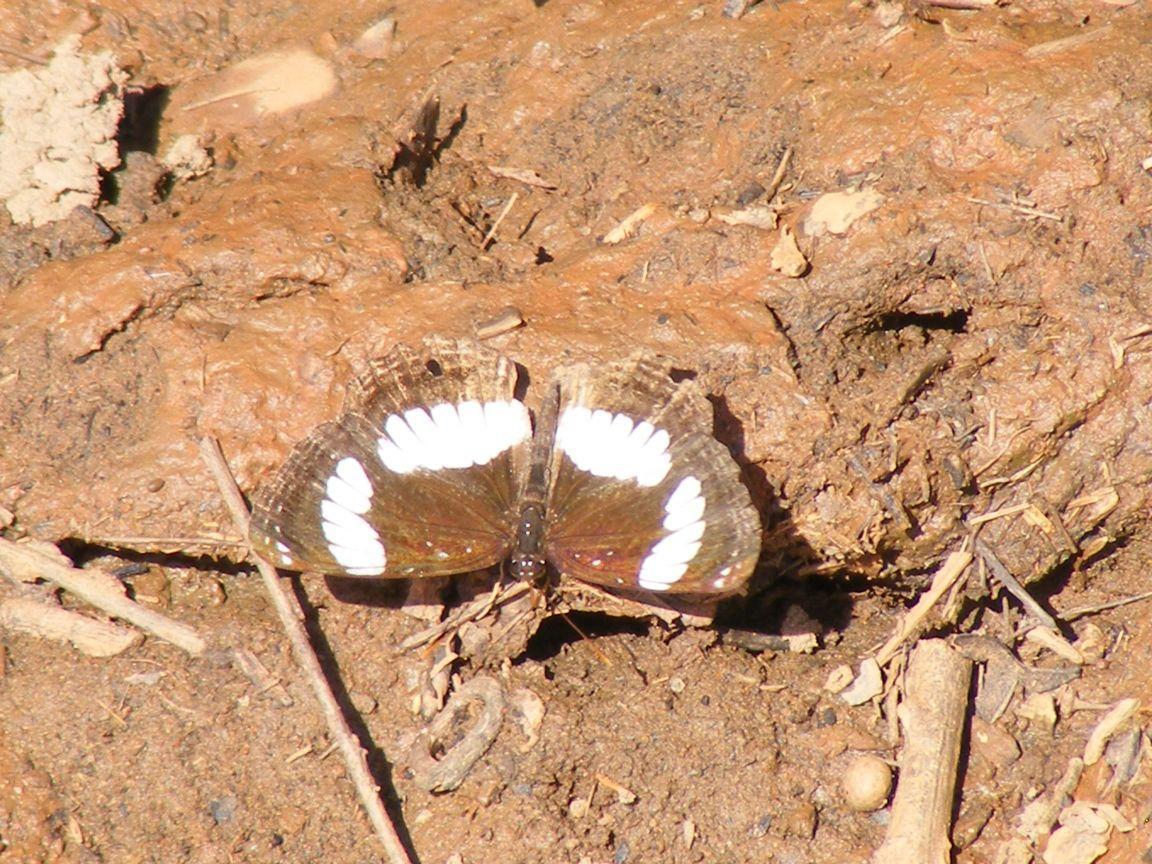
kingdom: Animalia
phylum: Arthropoda
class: Insecta
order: Lepidoptera
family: Nymphalidae
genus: Neptis
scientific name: Neptis laeta
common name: Common barred sailor
